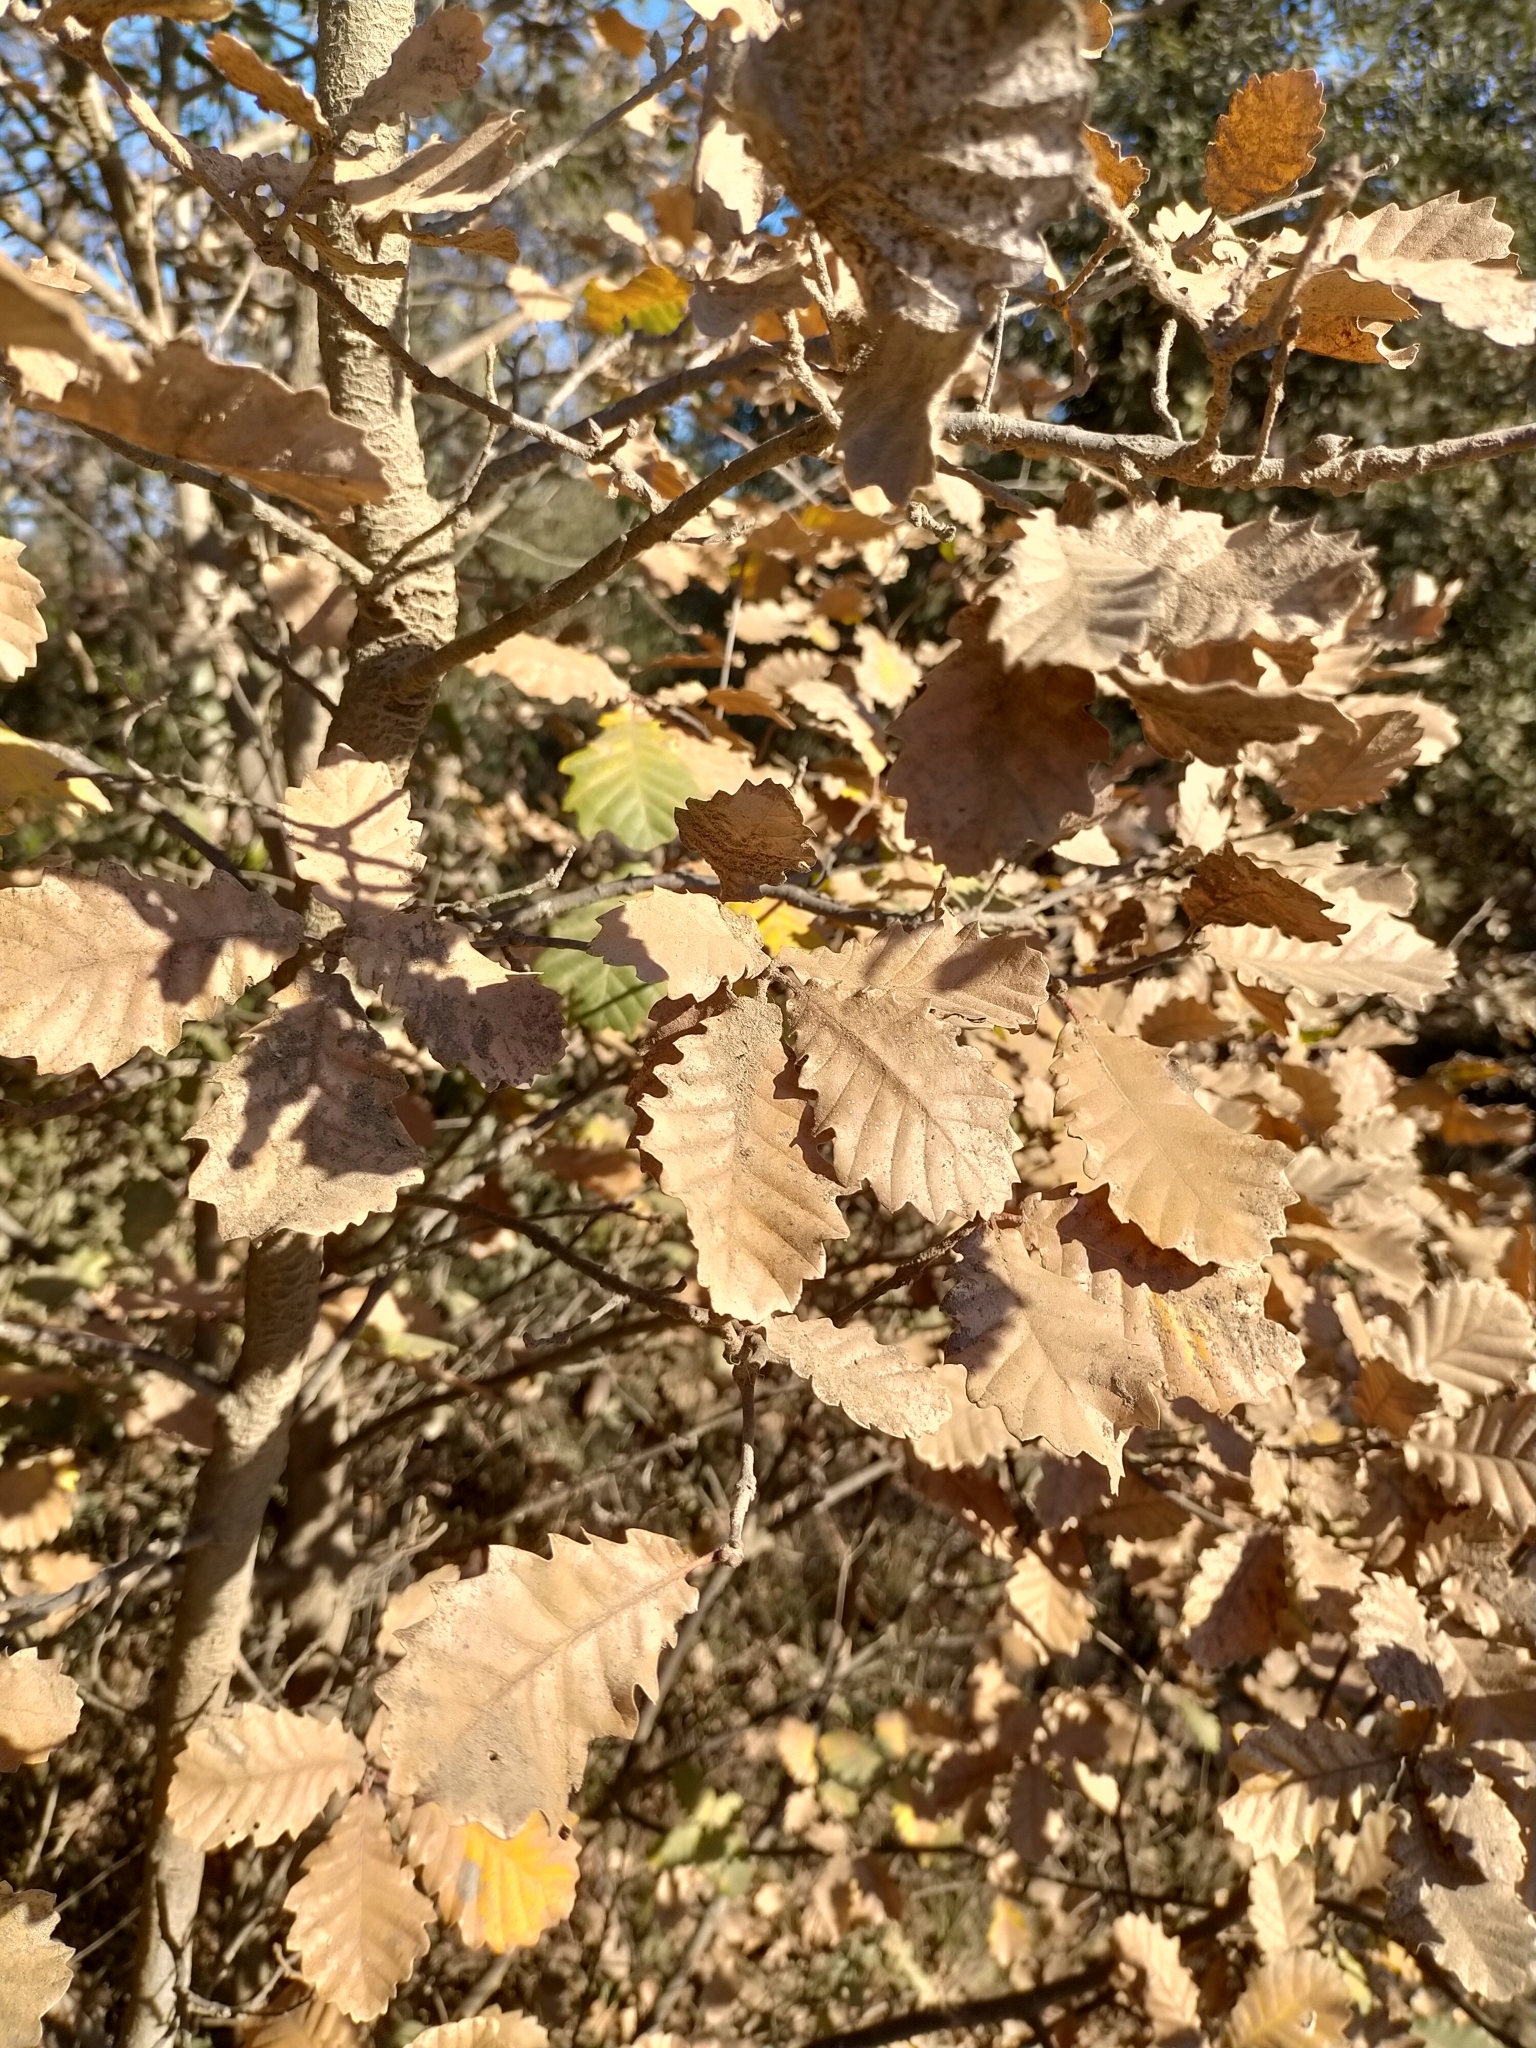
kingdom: Plantae
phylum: Tracheophyta
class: Magnoliopsida
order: Fagales
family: Fagaceae
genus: Quercus
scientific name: Quercus pubescens
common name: Downy oak
